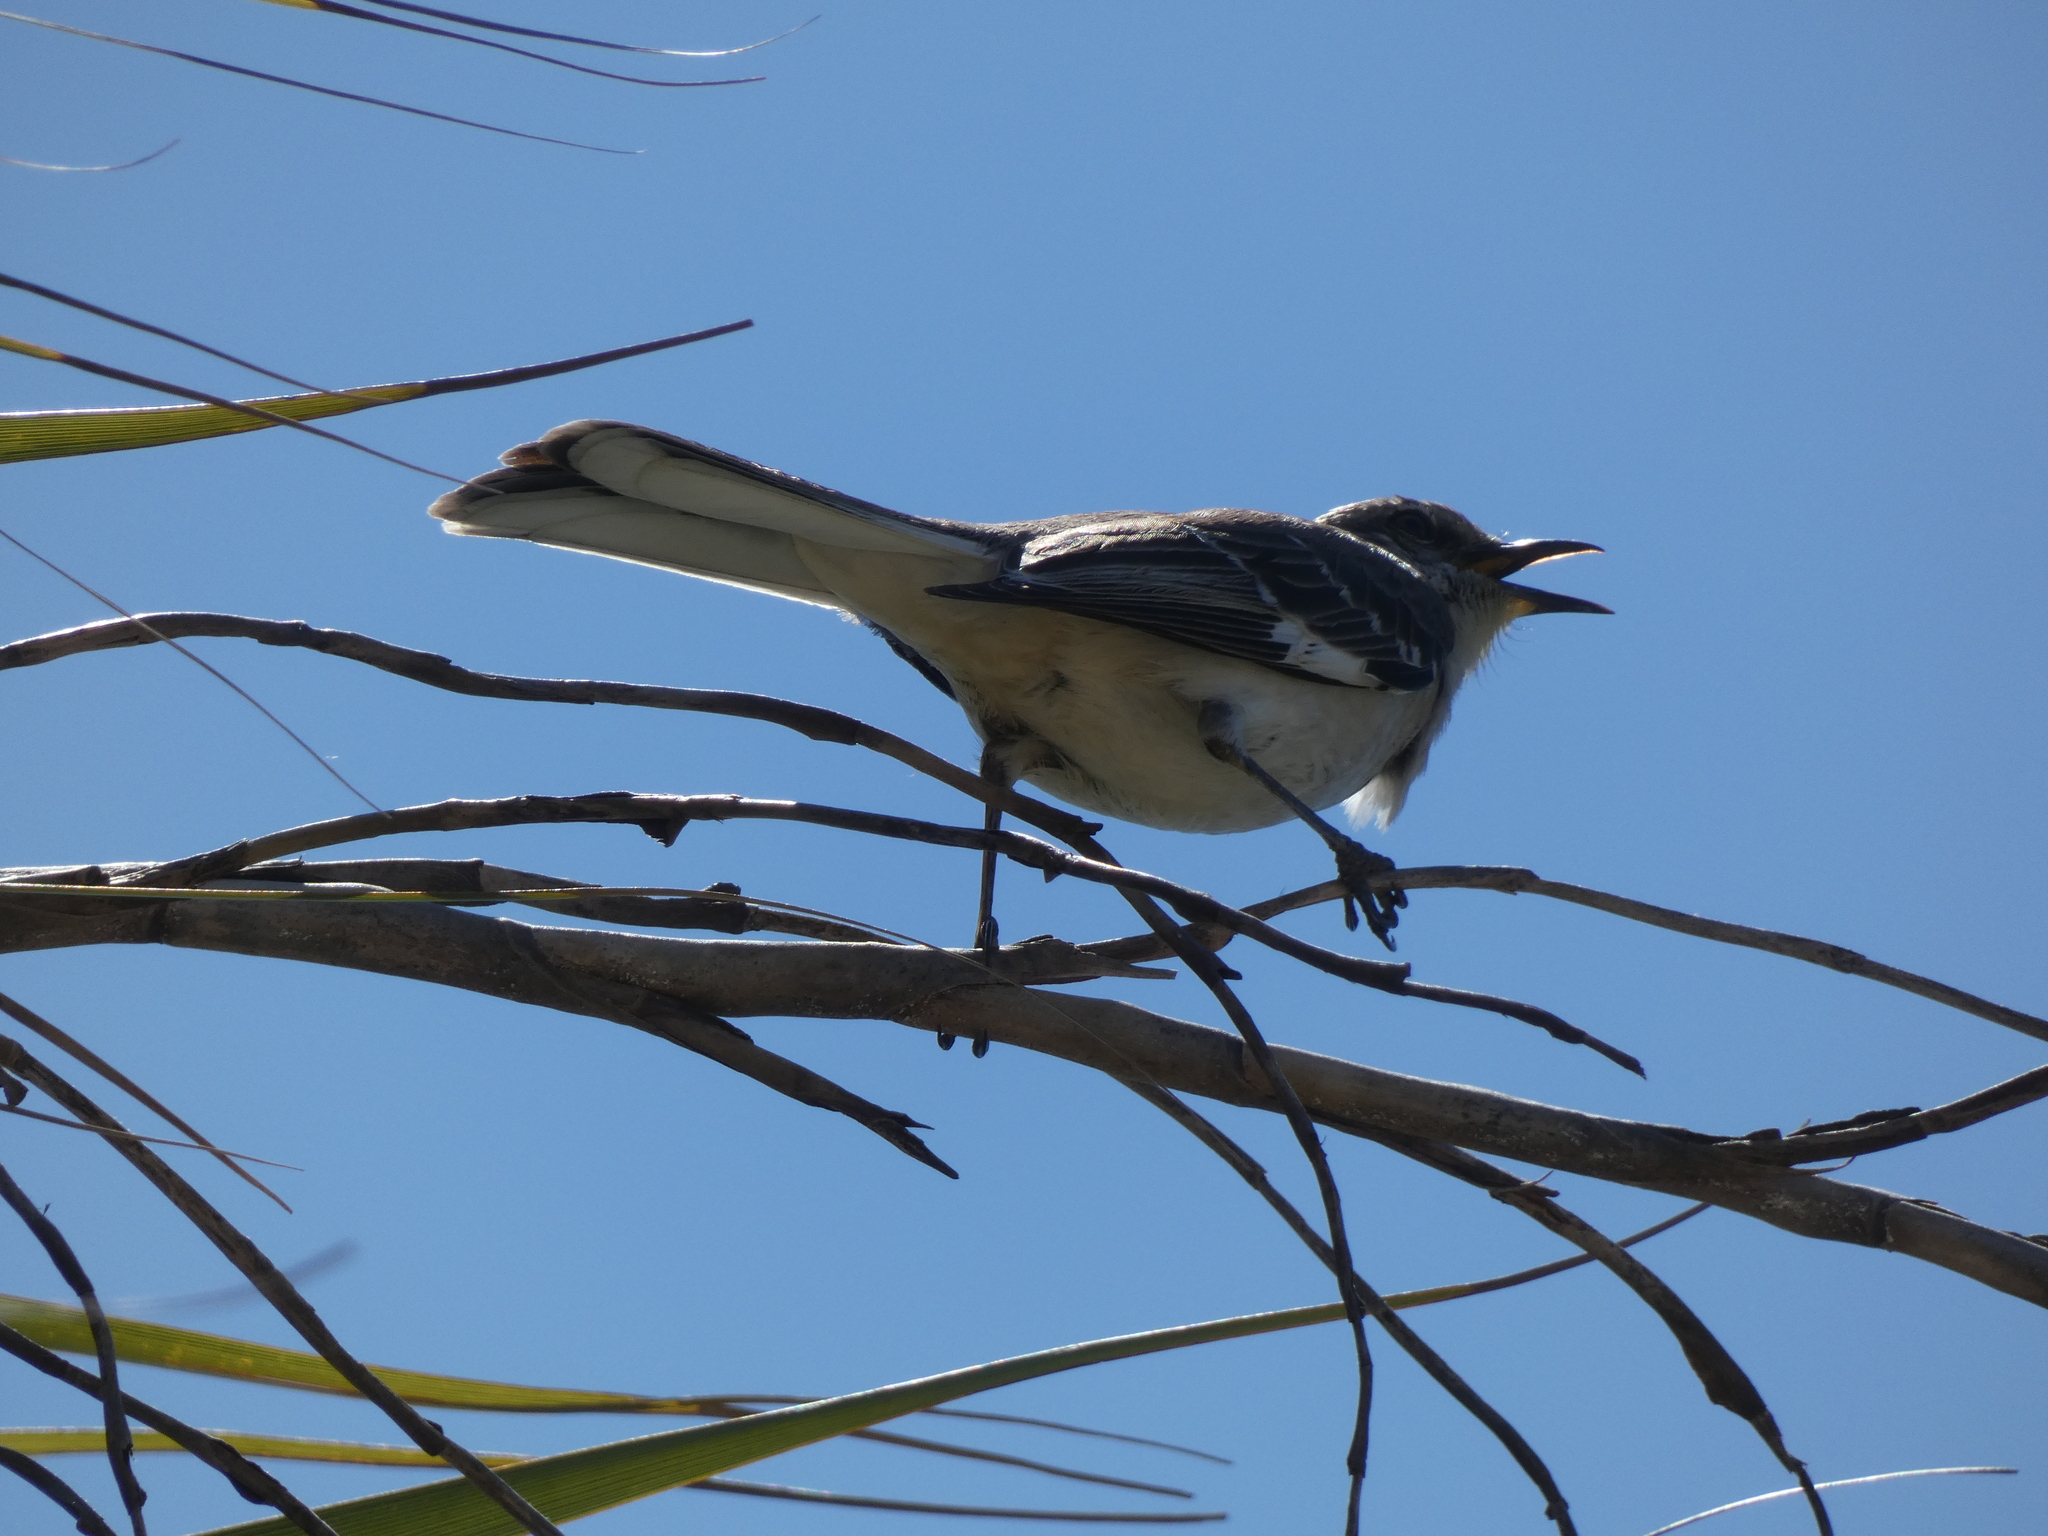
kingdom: Animalia
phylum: Chordata
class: Aves
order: Passeriformes
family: Mimidae
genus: Mimus
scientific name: Mimus polyglottos
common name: Northern mockingbird
